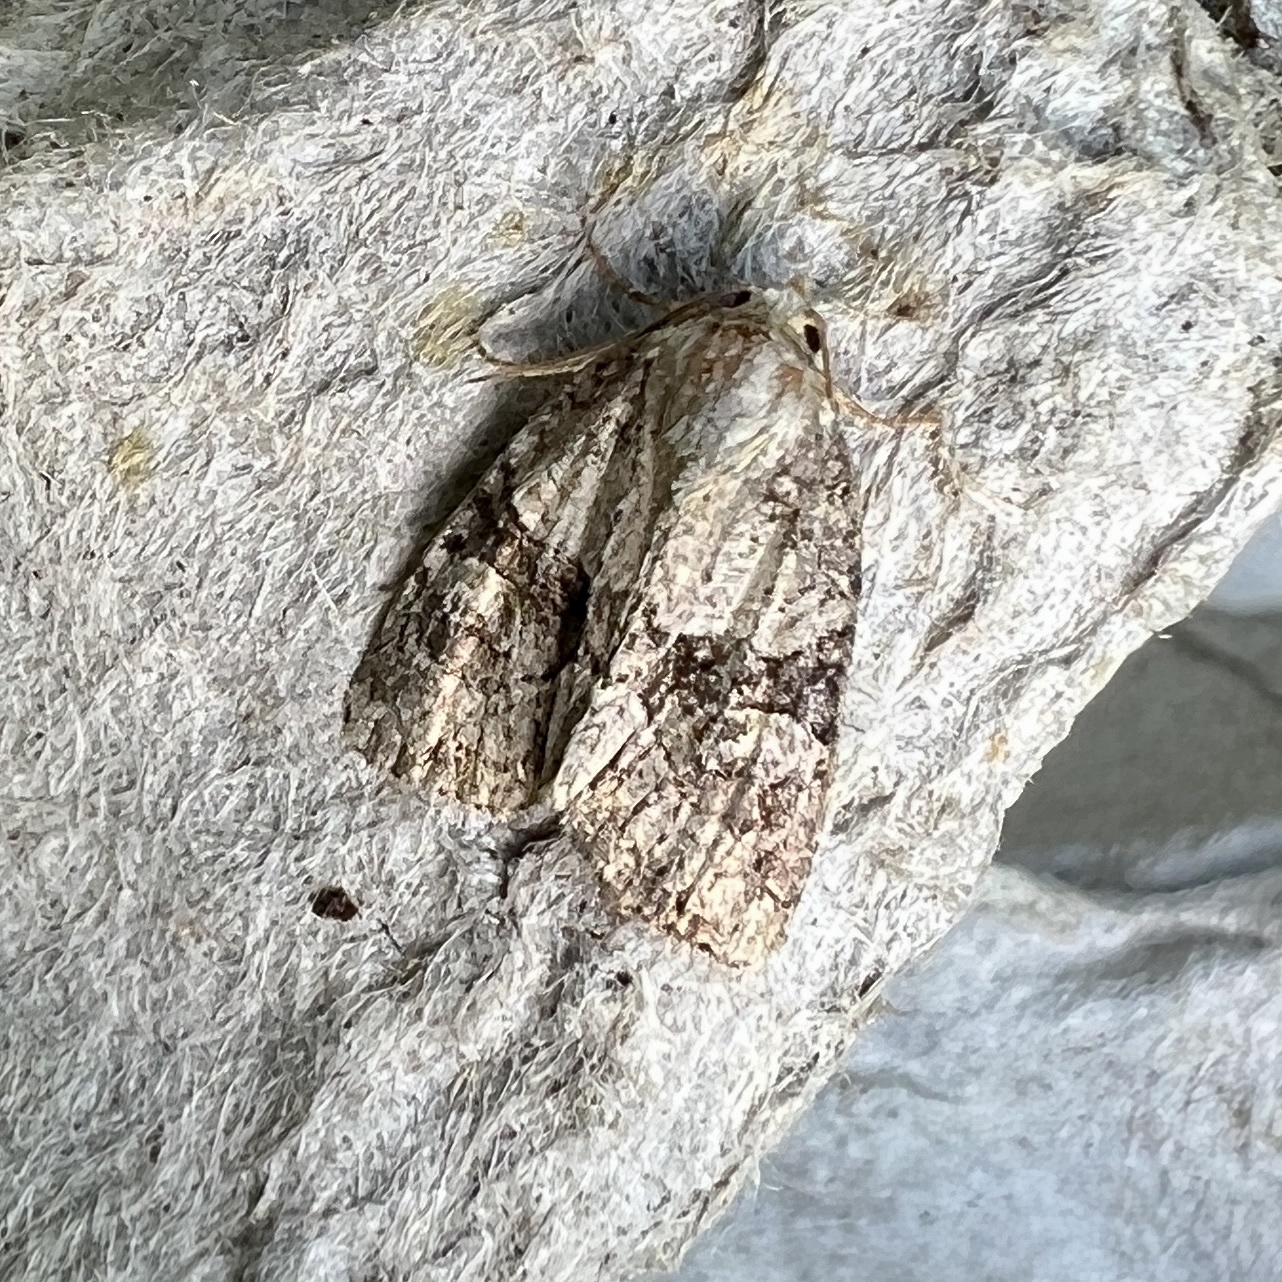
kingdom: Animalia
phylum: Arthropoda
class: Insecta
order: Lepidoptera
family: Noctuidae
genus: Neoligia
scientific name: Neoligia exhausta
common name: Exhausted brocade
